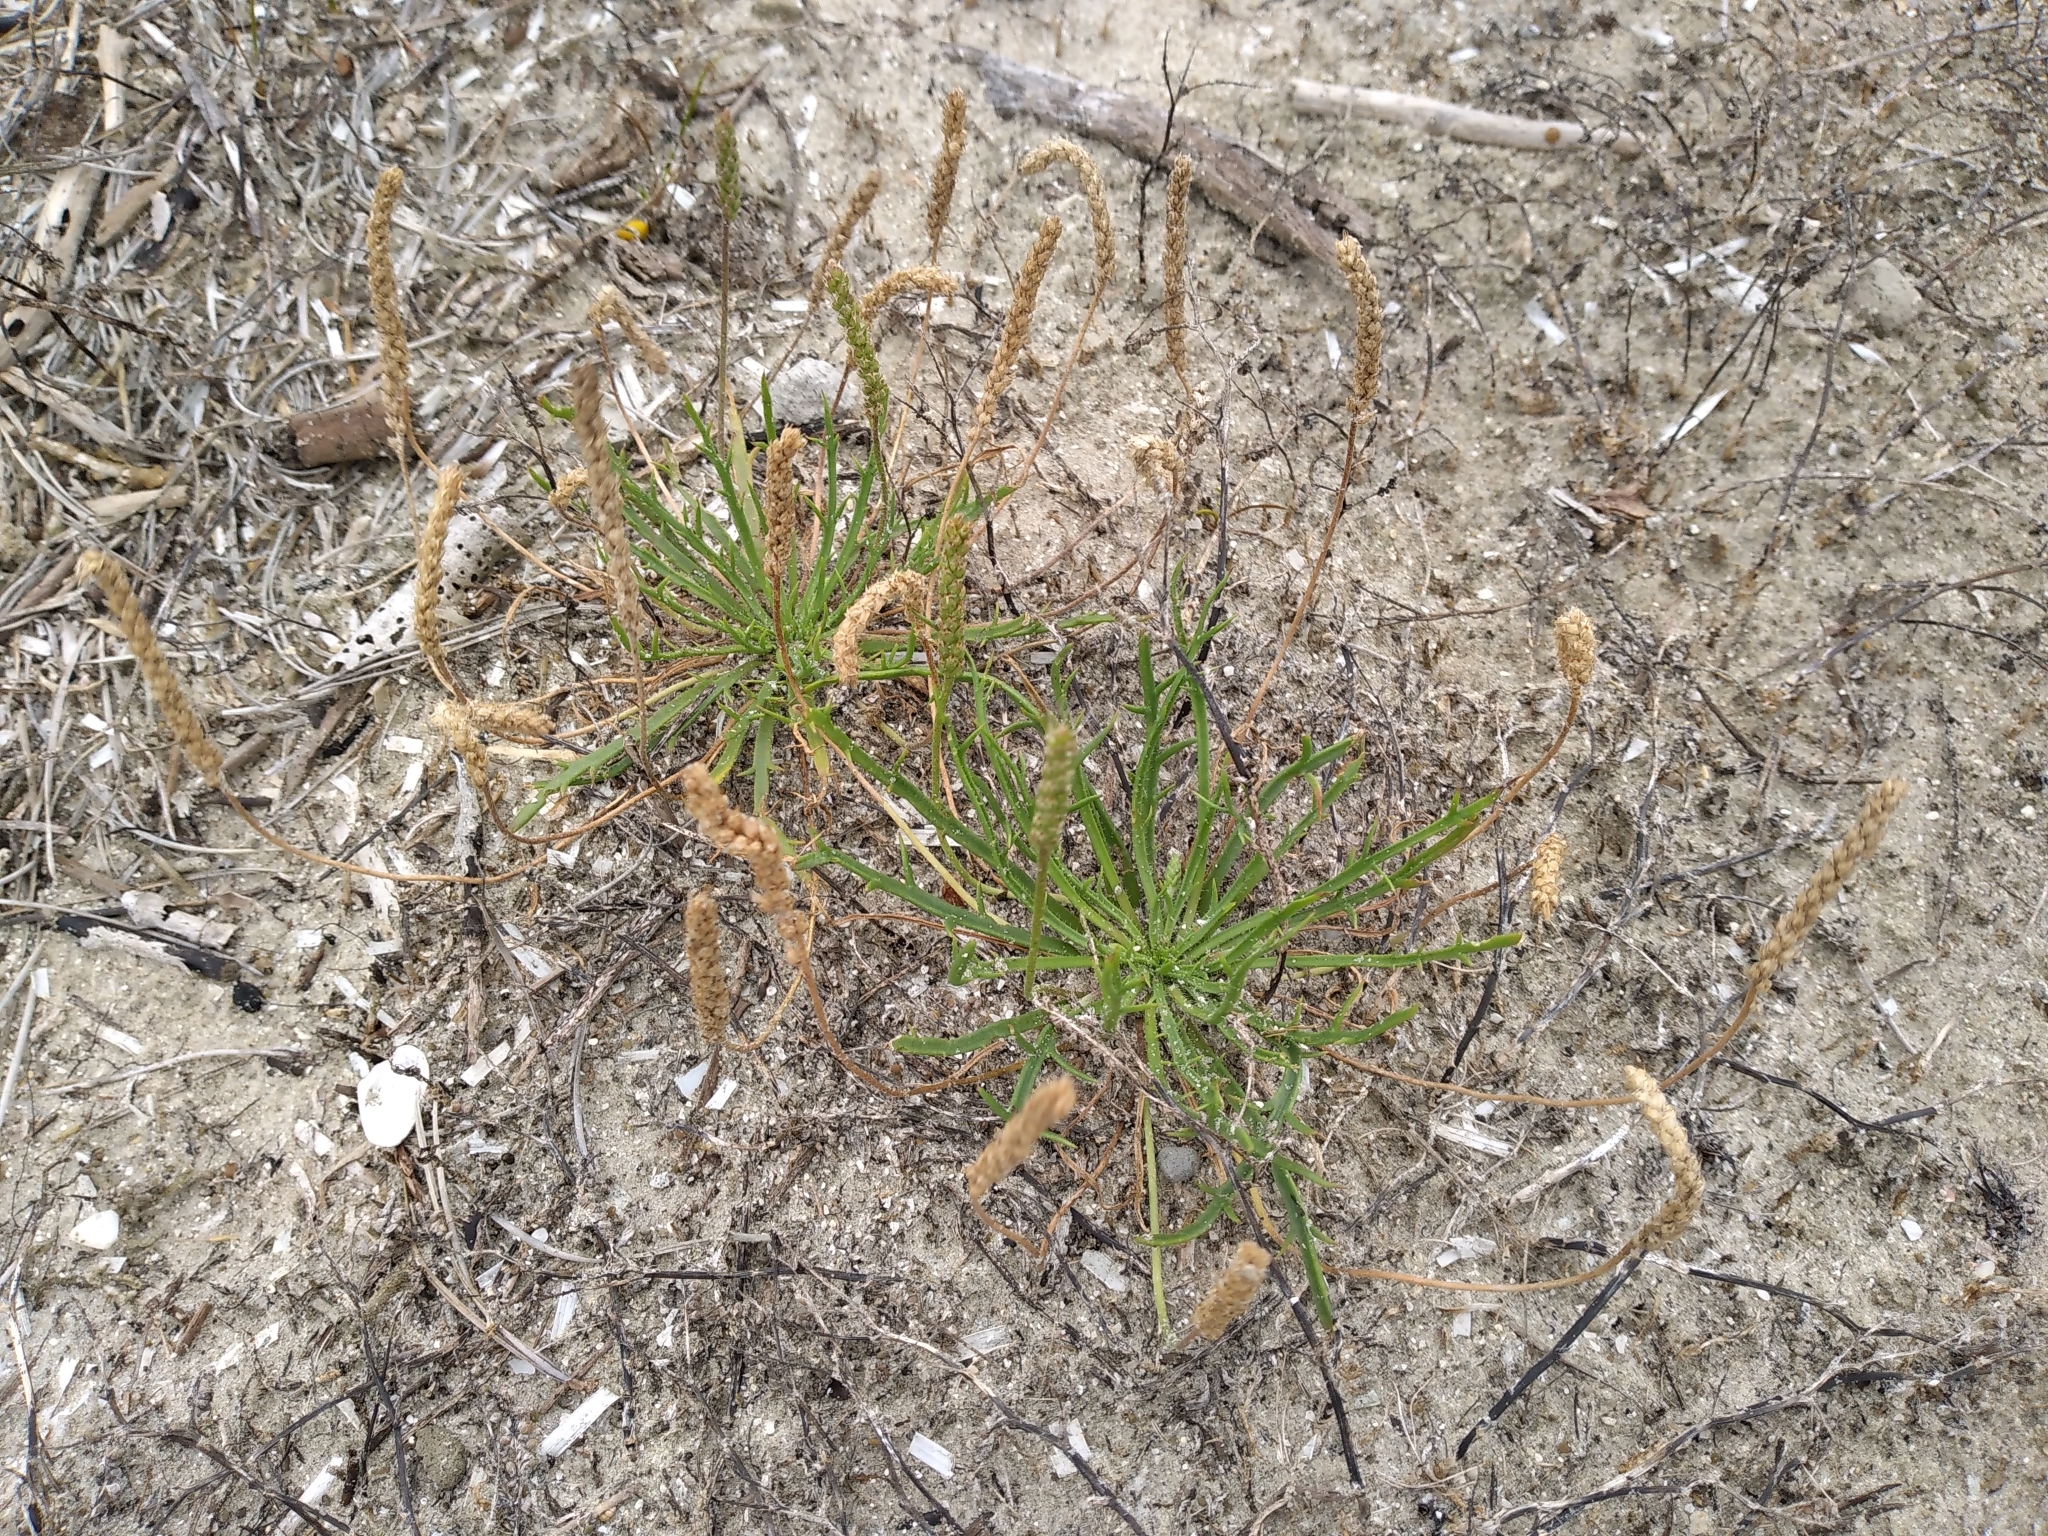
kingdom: Plantae
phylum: Tracheophyta
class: Magnoliopsida
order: Lamiales
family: Plantaginaceae
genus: Plantago
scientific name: Plantago coronopus
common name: Buck's-horn plantain
